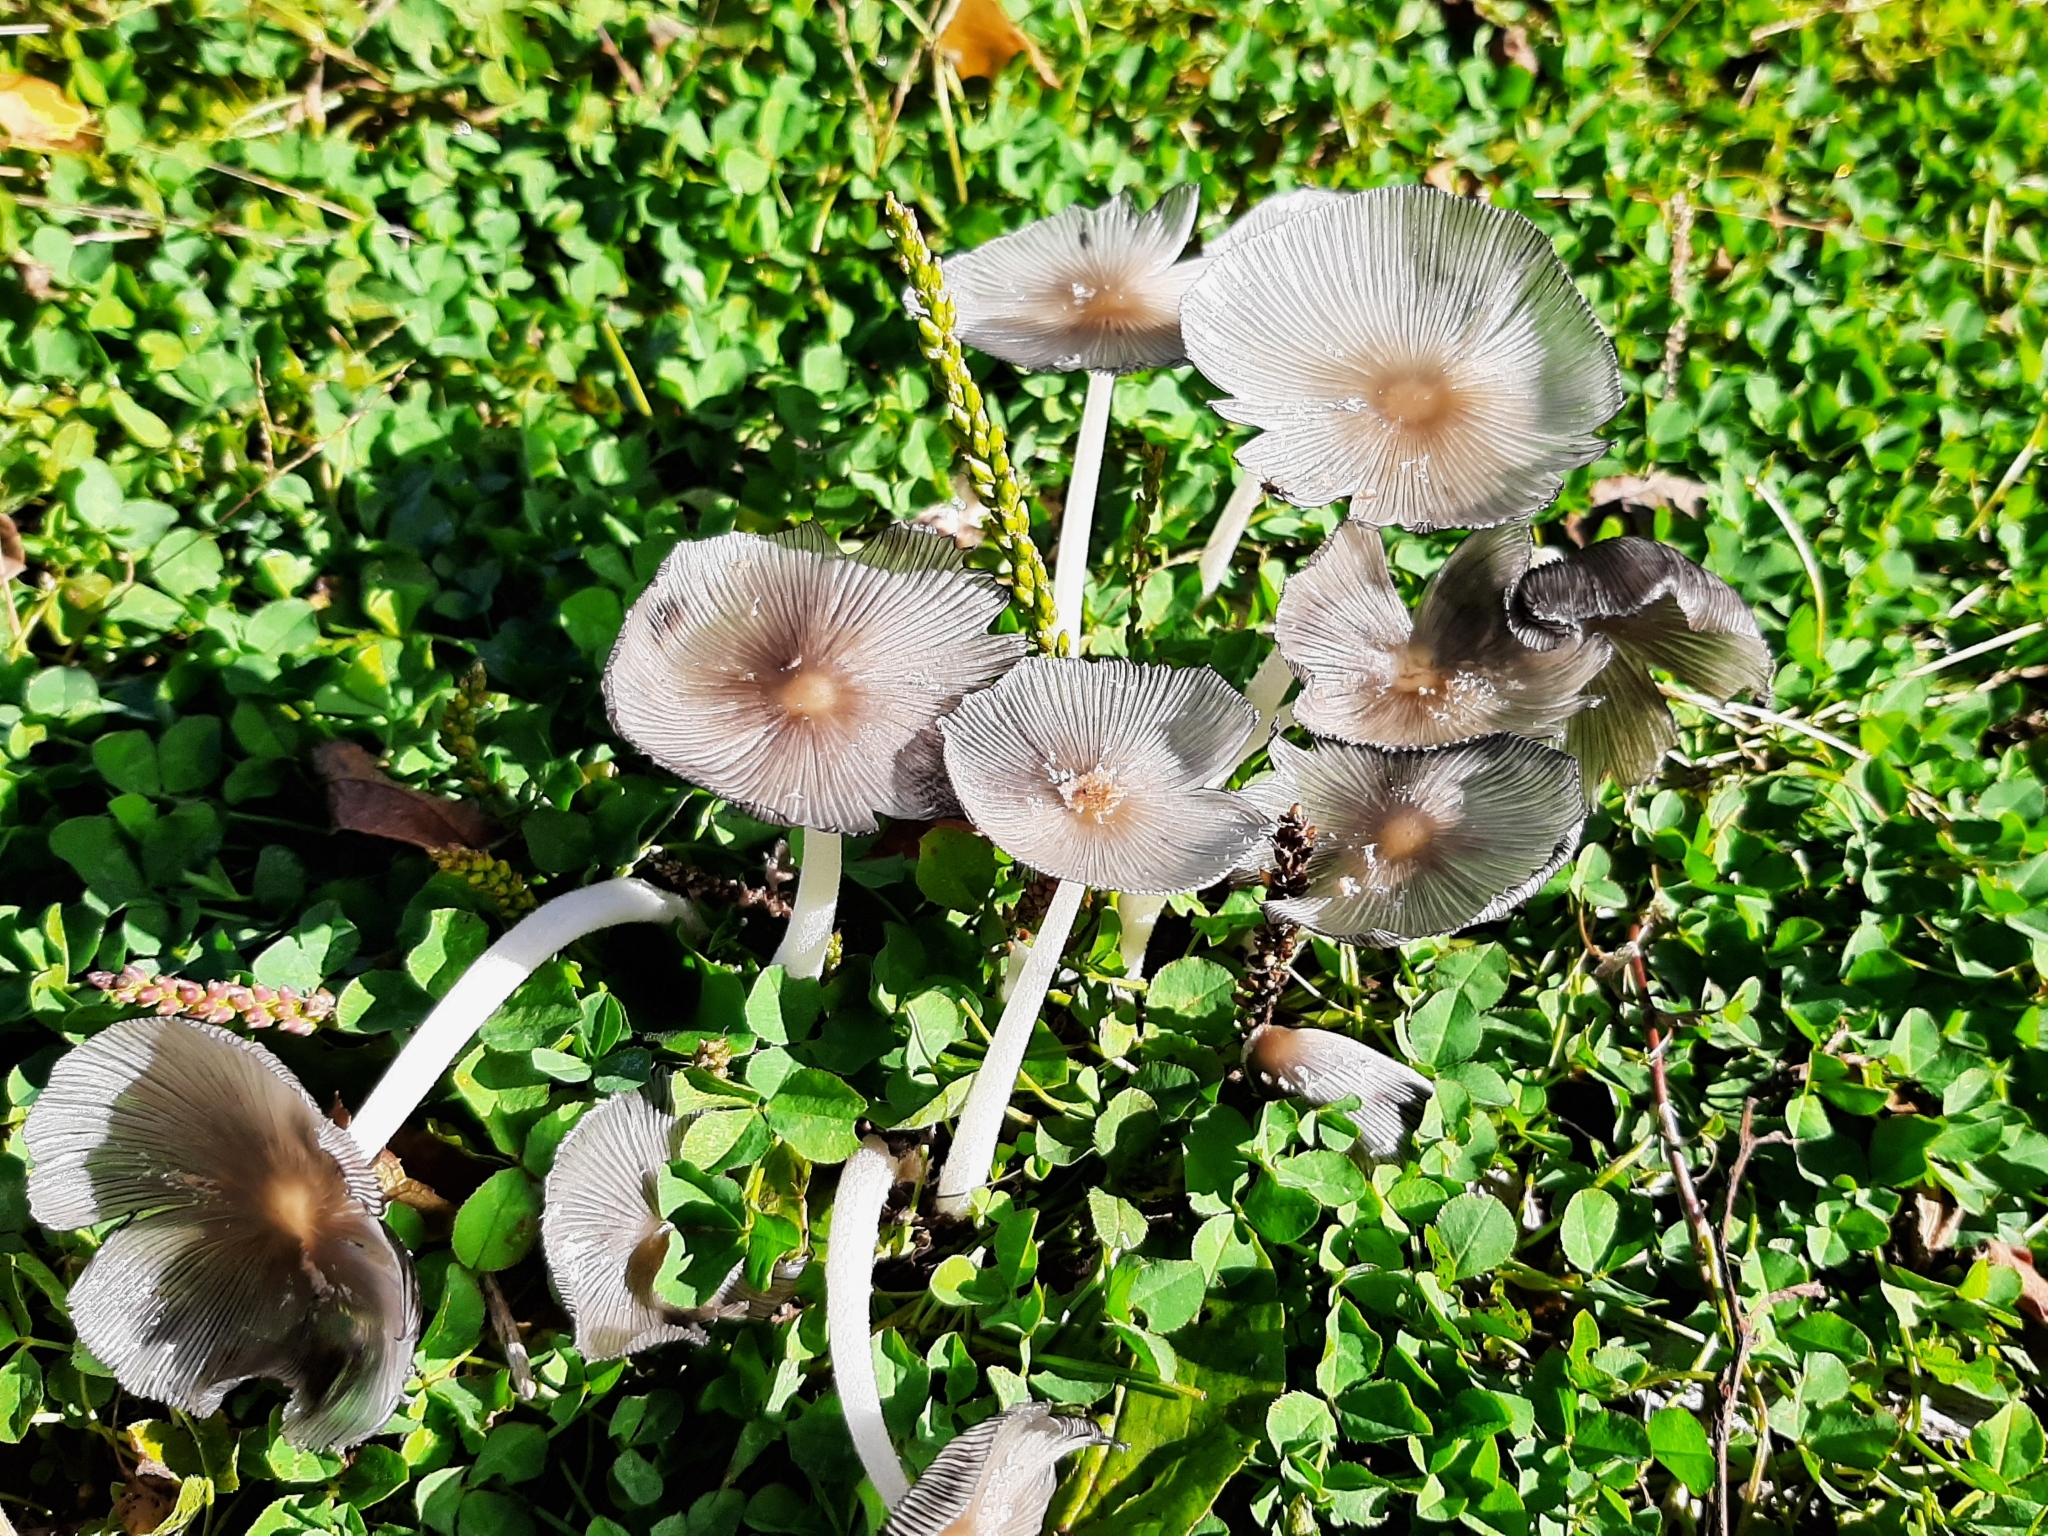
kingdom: Fungi
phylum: Basidiomycota
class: Agaricomycetes
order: Agaricales
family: Psathyrellaceae
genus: Coprinopsis
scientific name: Coprinopsis lagopus
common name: Hare'sfoot inkcap
